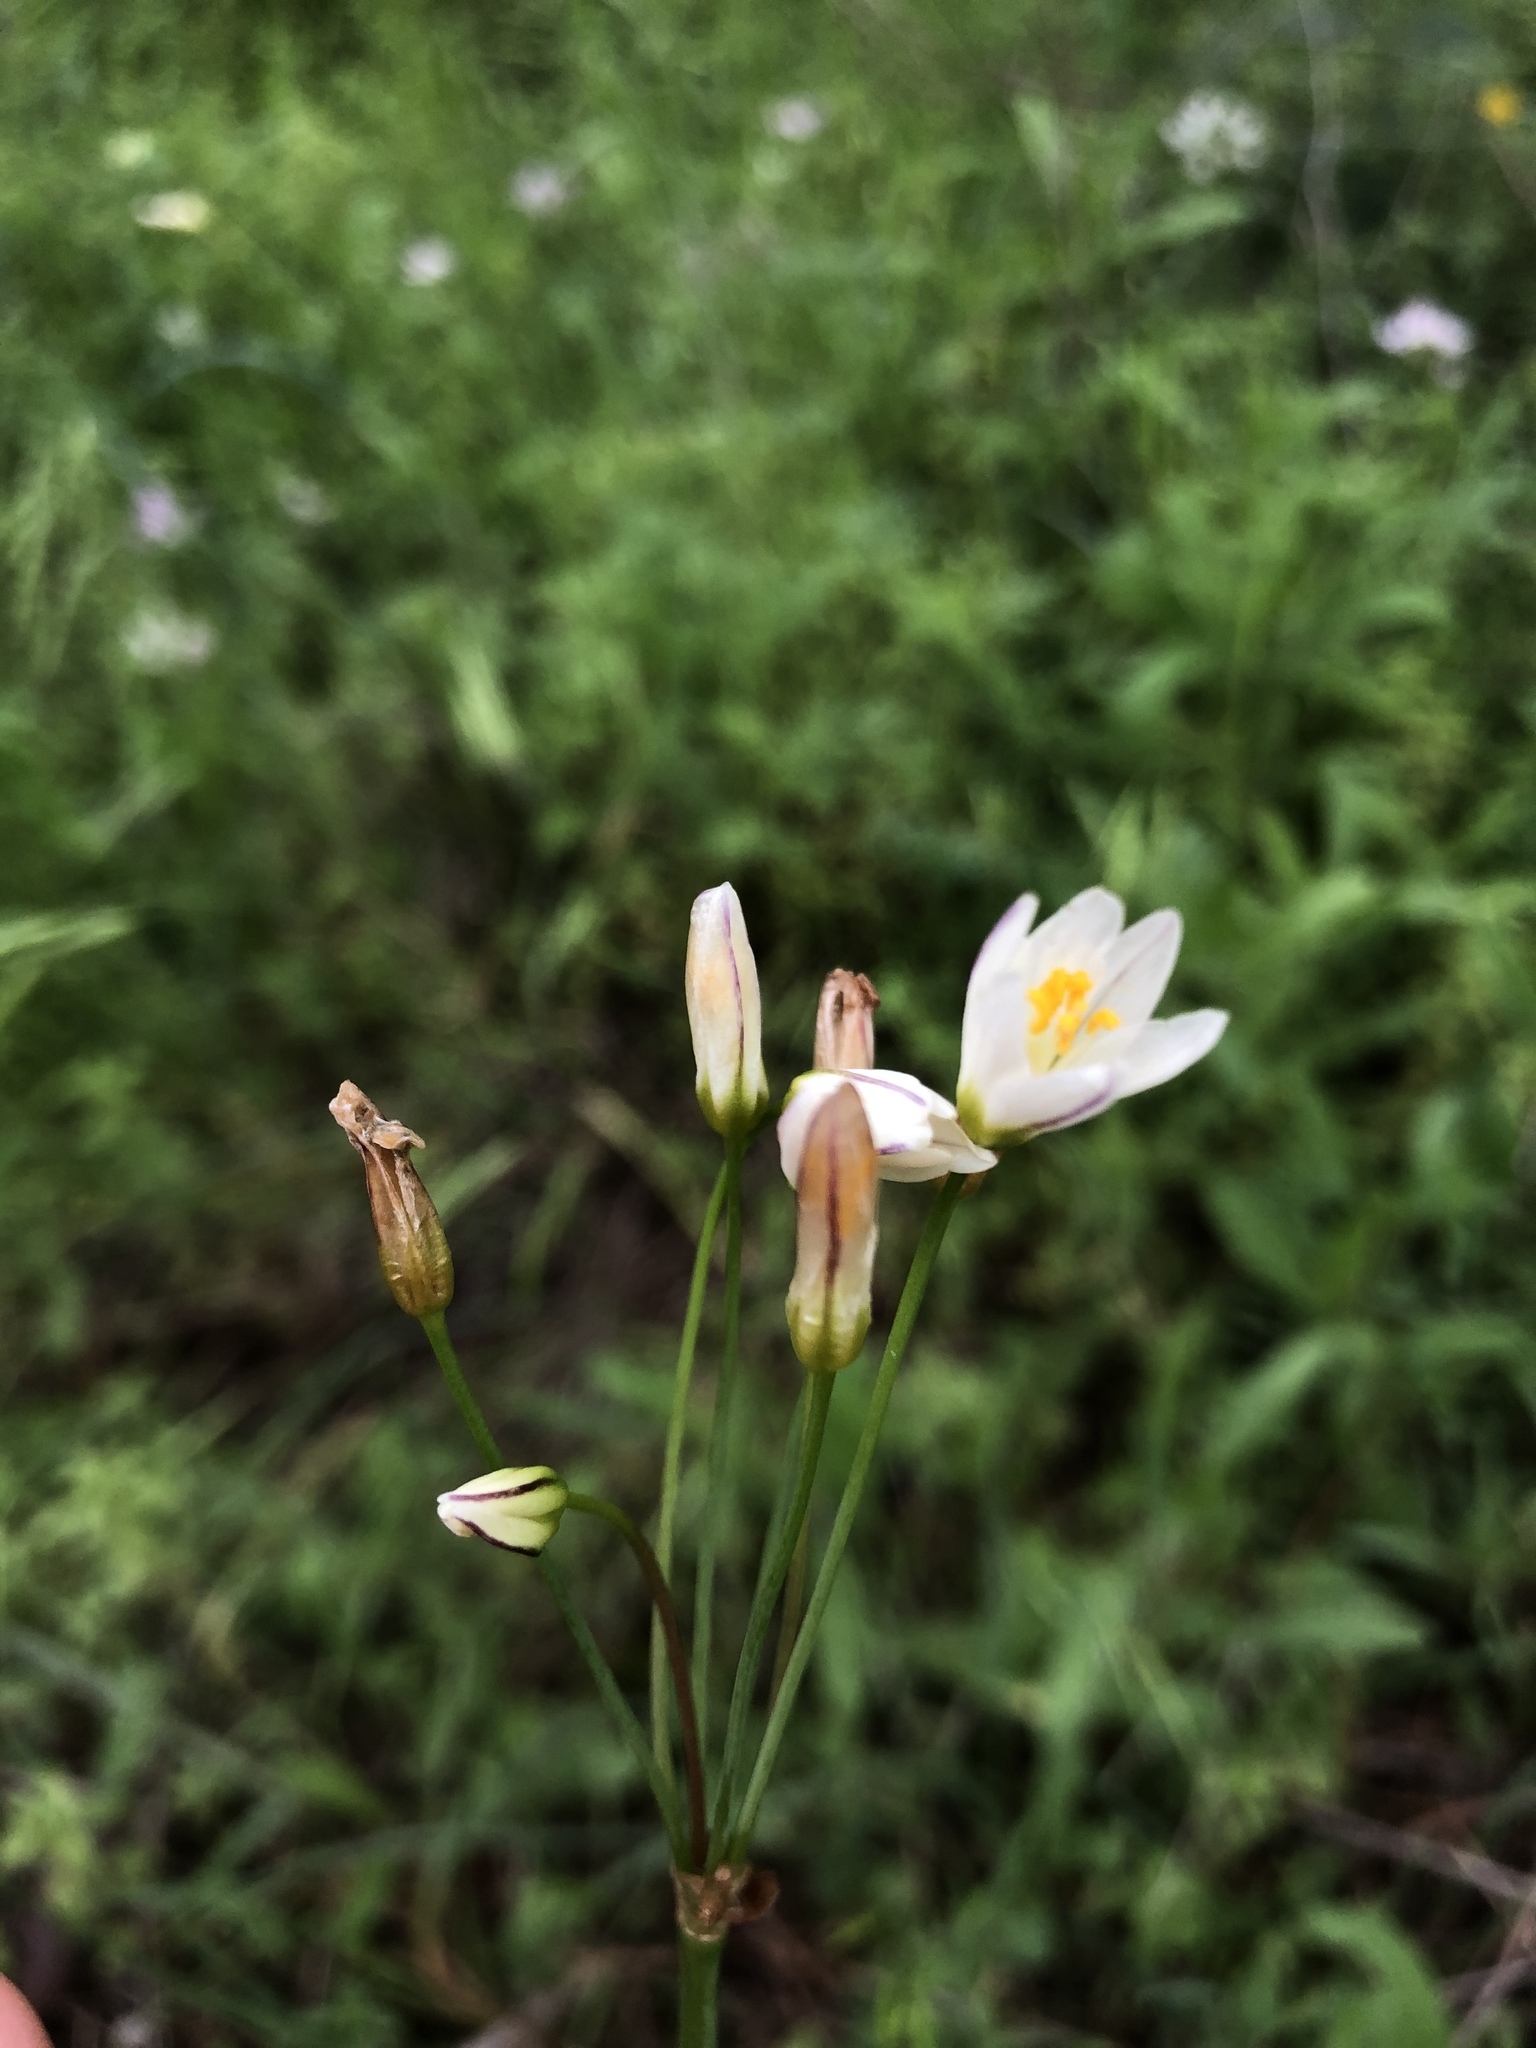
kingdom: Plantae
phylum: Tracheophyta
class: Liliopsida
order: Asparagales
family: Amaryllidaceae
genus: Nothoscordum
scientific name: Nothoscordum bivalve
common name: Crow-poison
